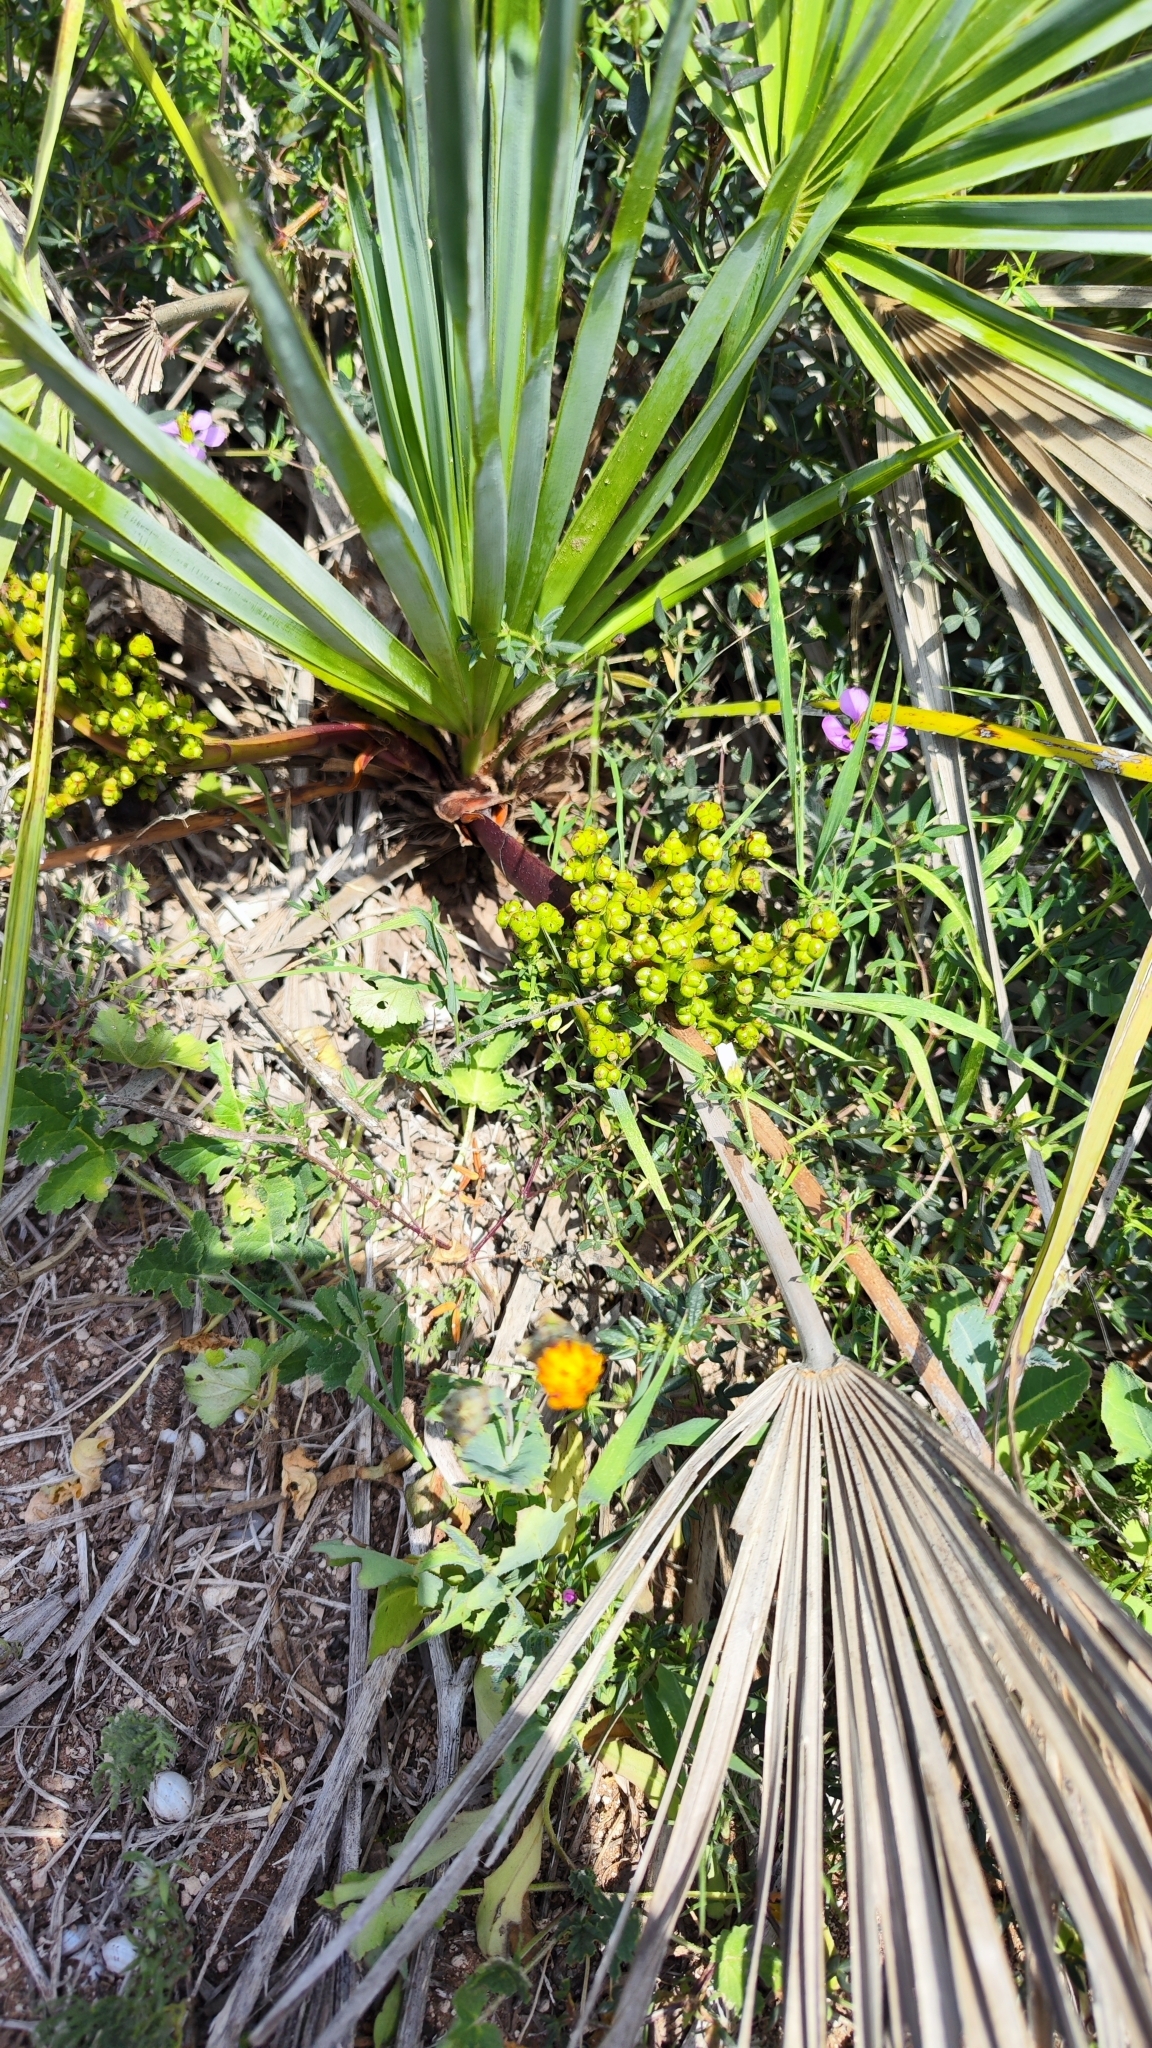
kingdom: Plantae
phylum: Tracheophyta
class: Liliopsida
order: Arecales
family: Arecaceae
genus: Chamaerops
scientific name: Chamaerops humilis
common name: Dwarf fan palm
